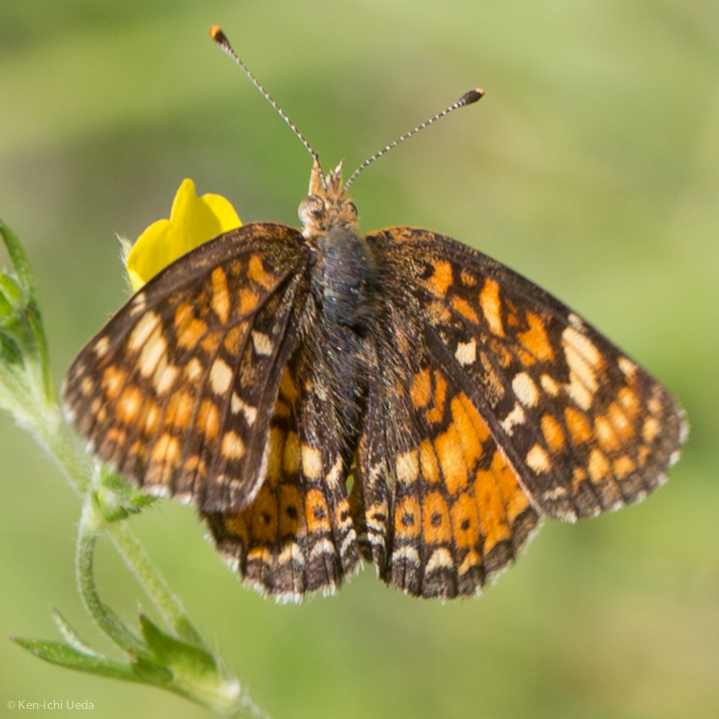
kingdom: Animalia
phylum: Arthropoda
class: Insecta
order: Lepidoptera
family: Nymphalidae
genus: Phyciodes
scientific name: Phyciodes tharos
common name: Pearl crescent
